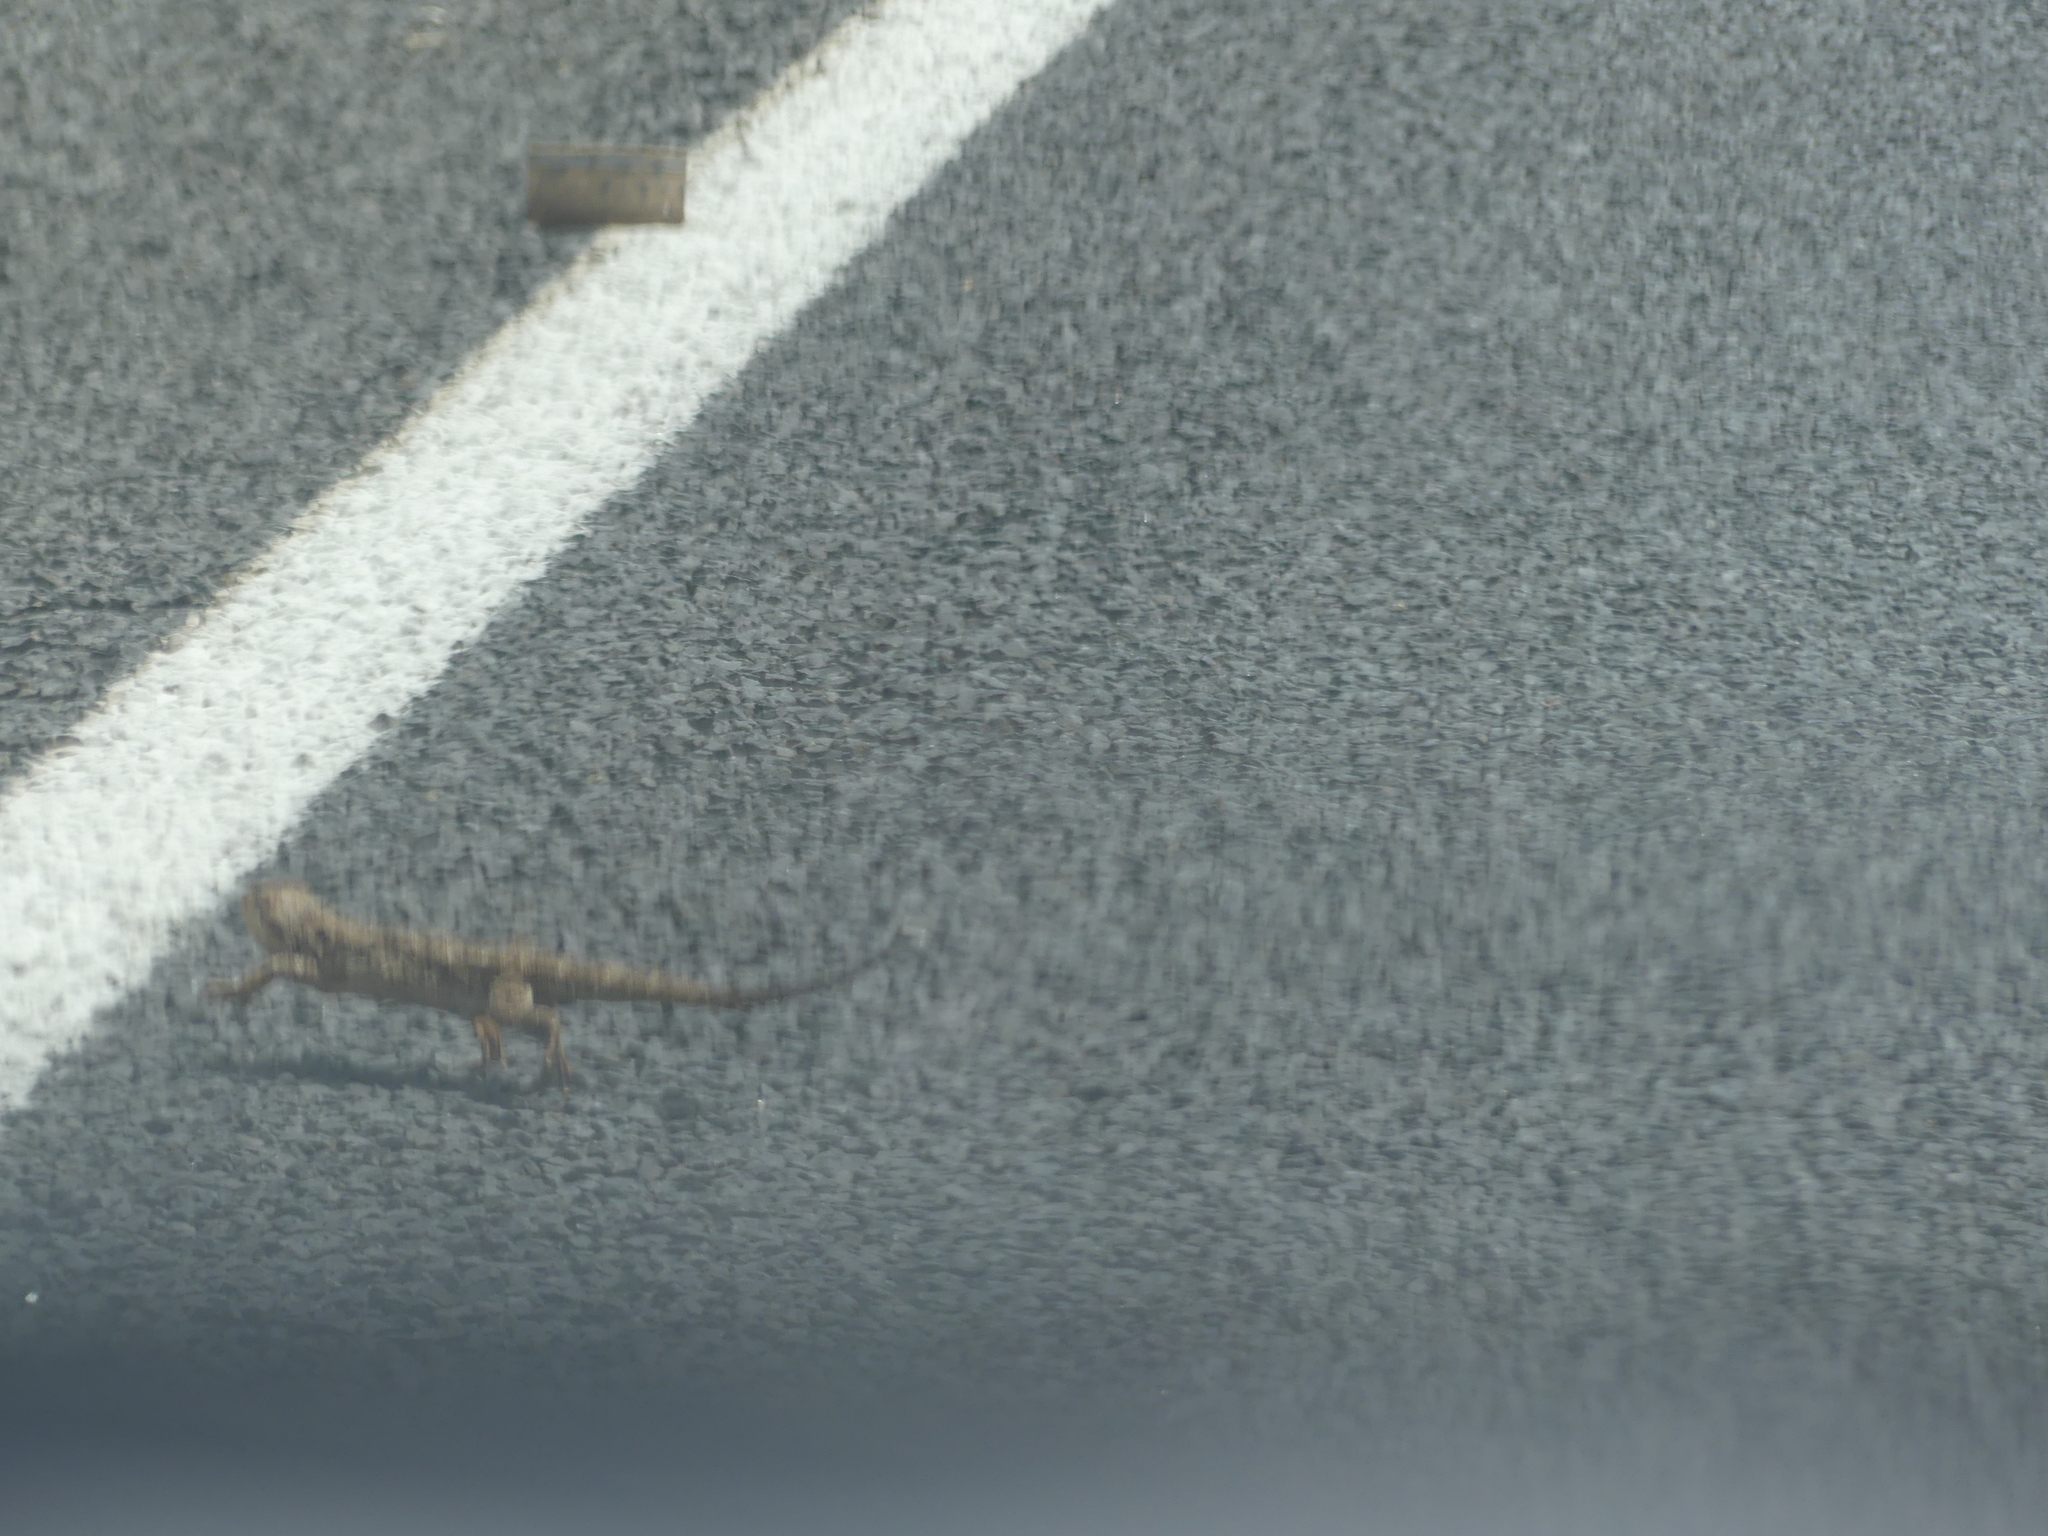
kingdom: Animalia
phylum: Chordata
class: Squamata
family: Agamidae
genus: Pogona
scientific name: Pogona barbata
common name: Bearded dragon
